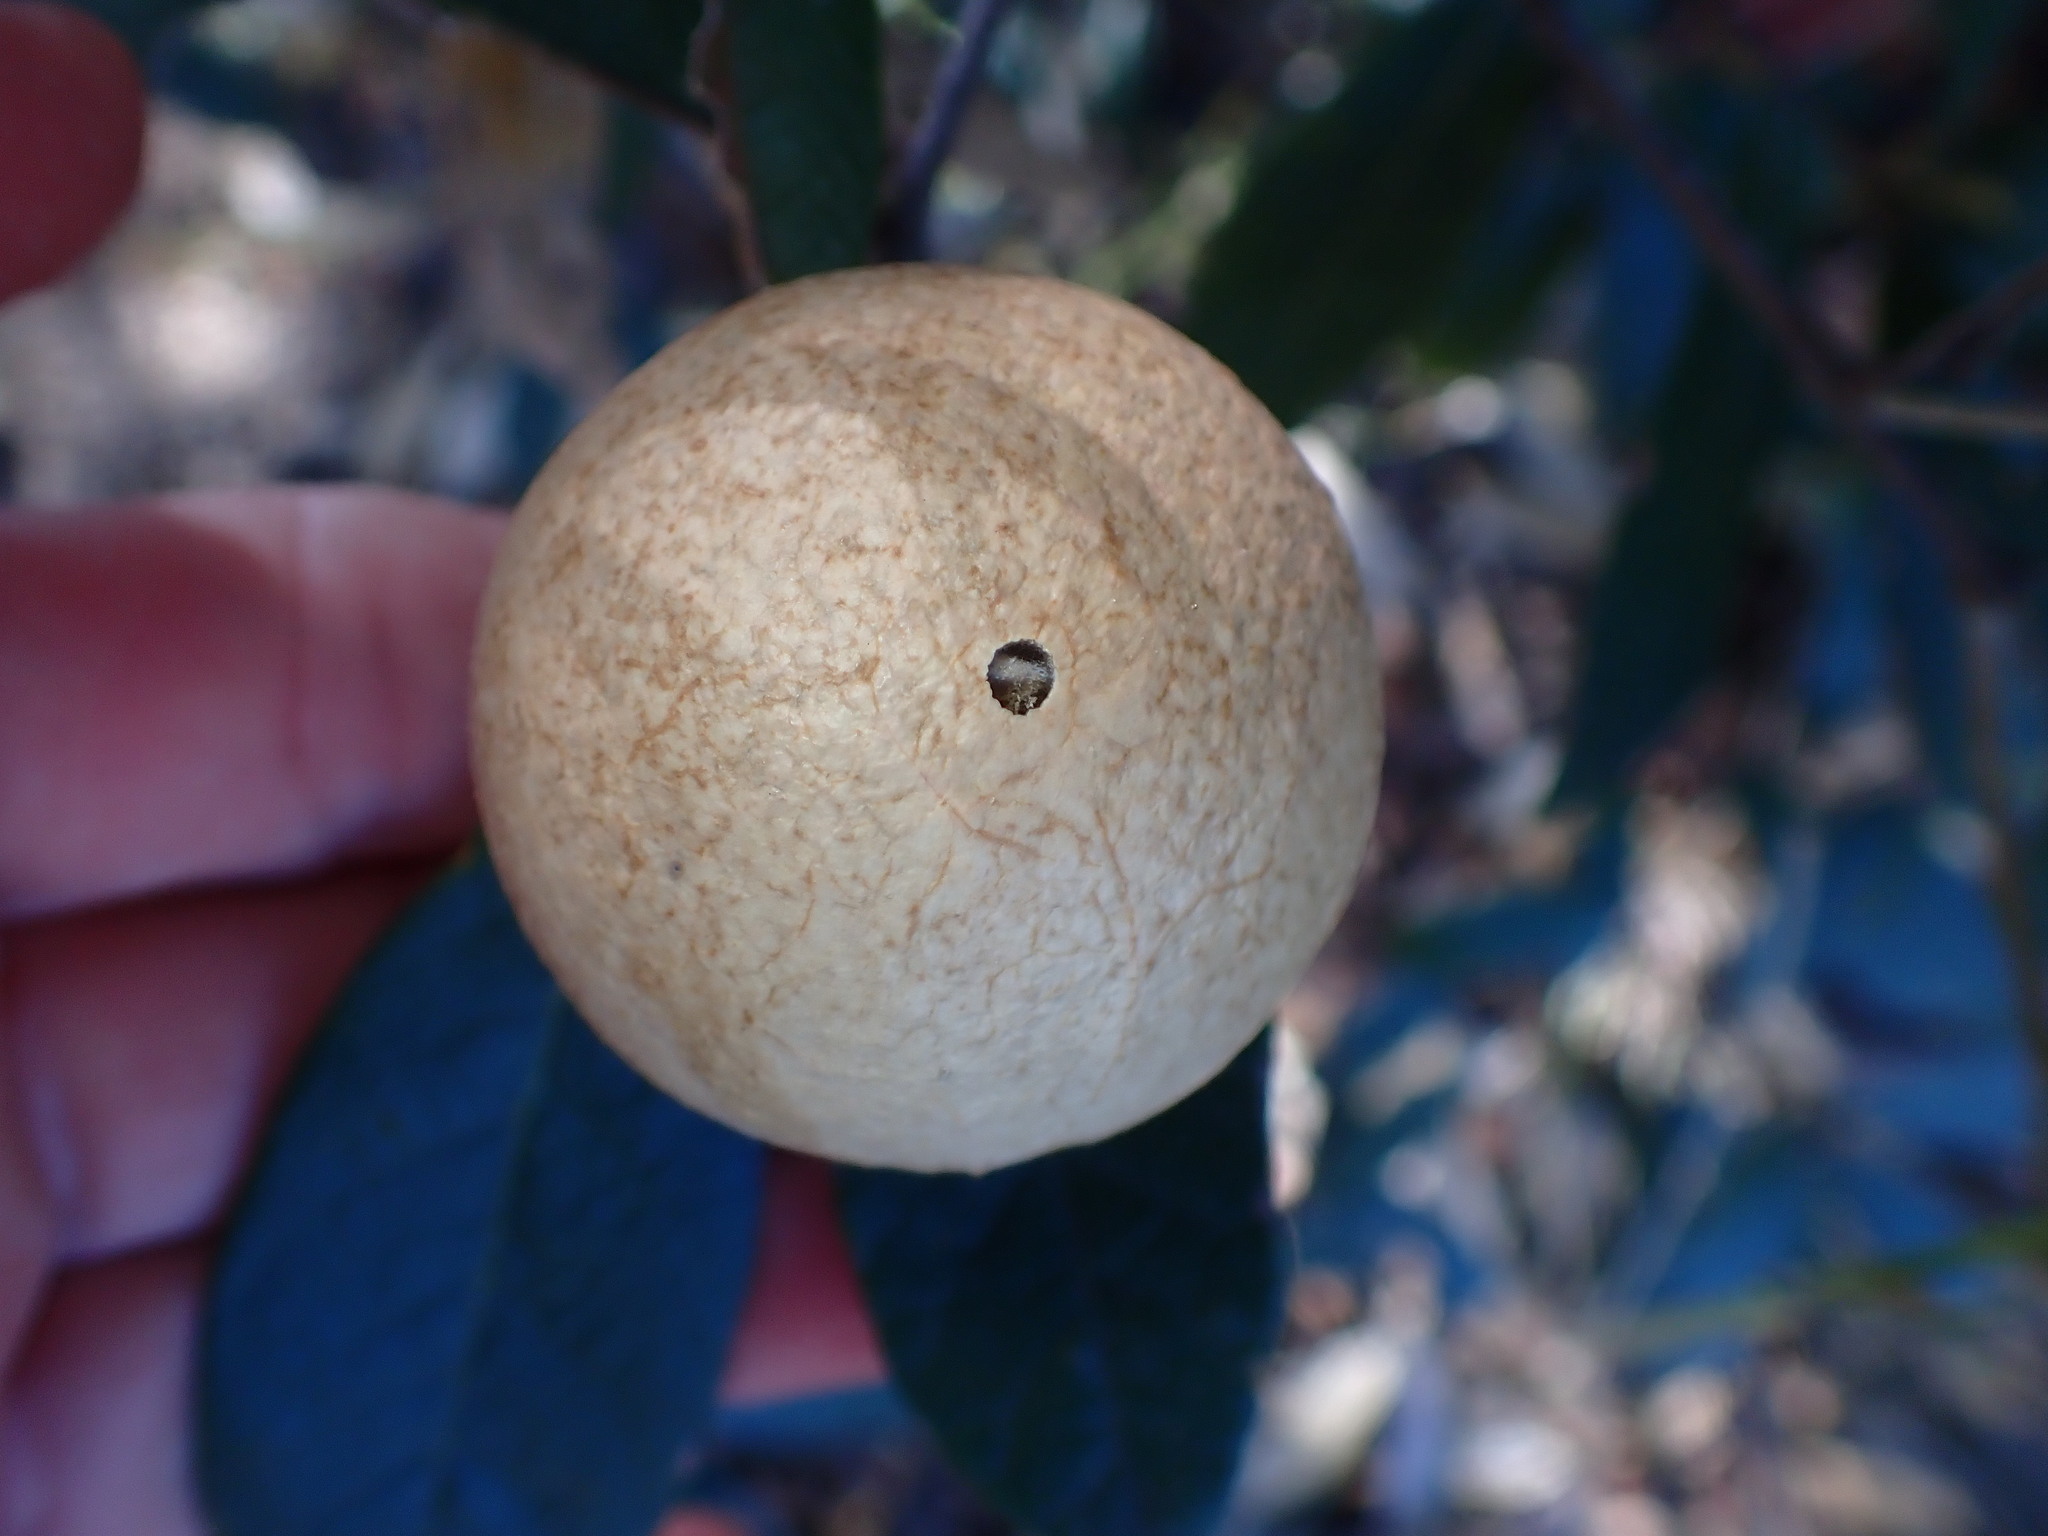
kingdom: Animalia
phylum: Arthropoda
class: Insecta
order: Hymenoptera
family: Cynipidae
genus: Amphibolips
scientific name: Amphibolips
